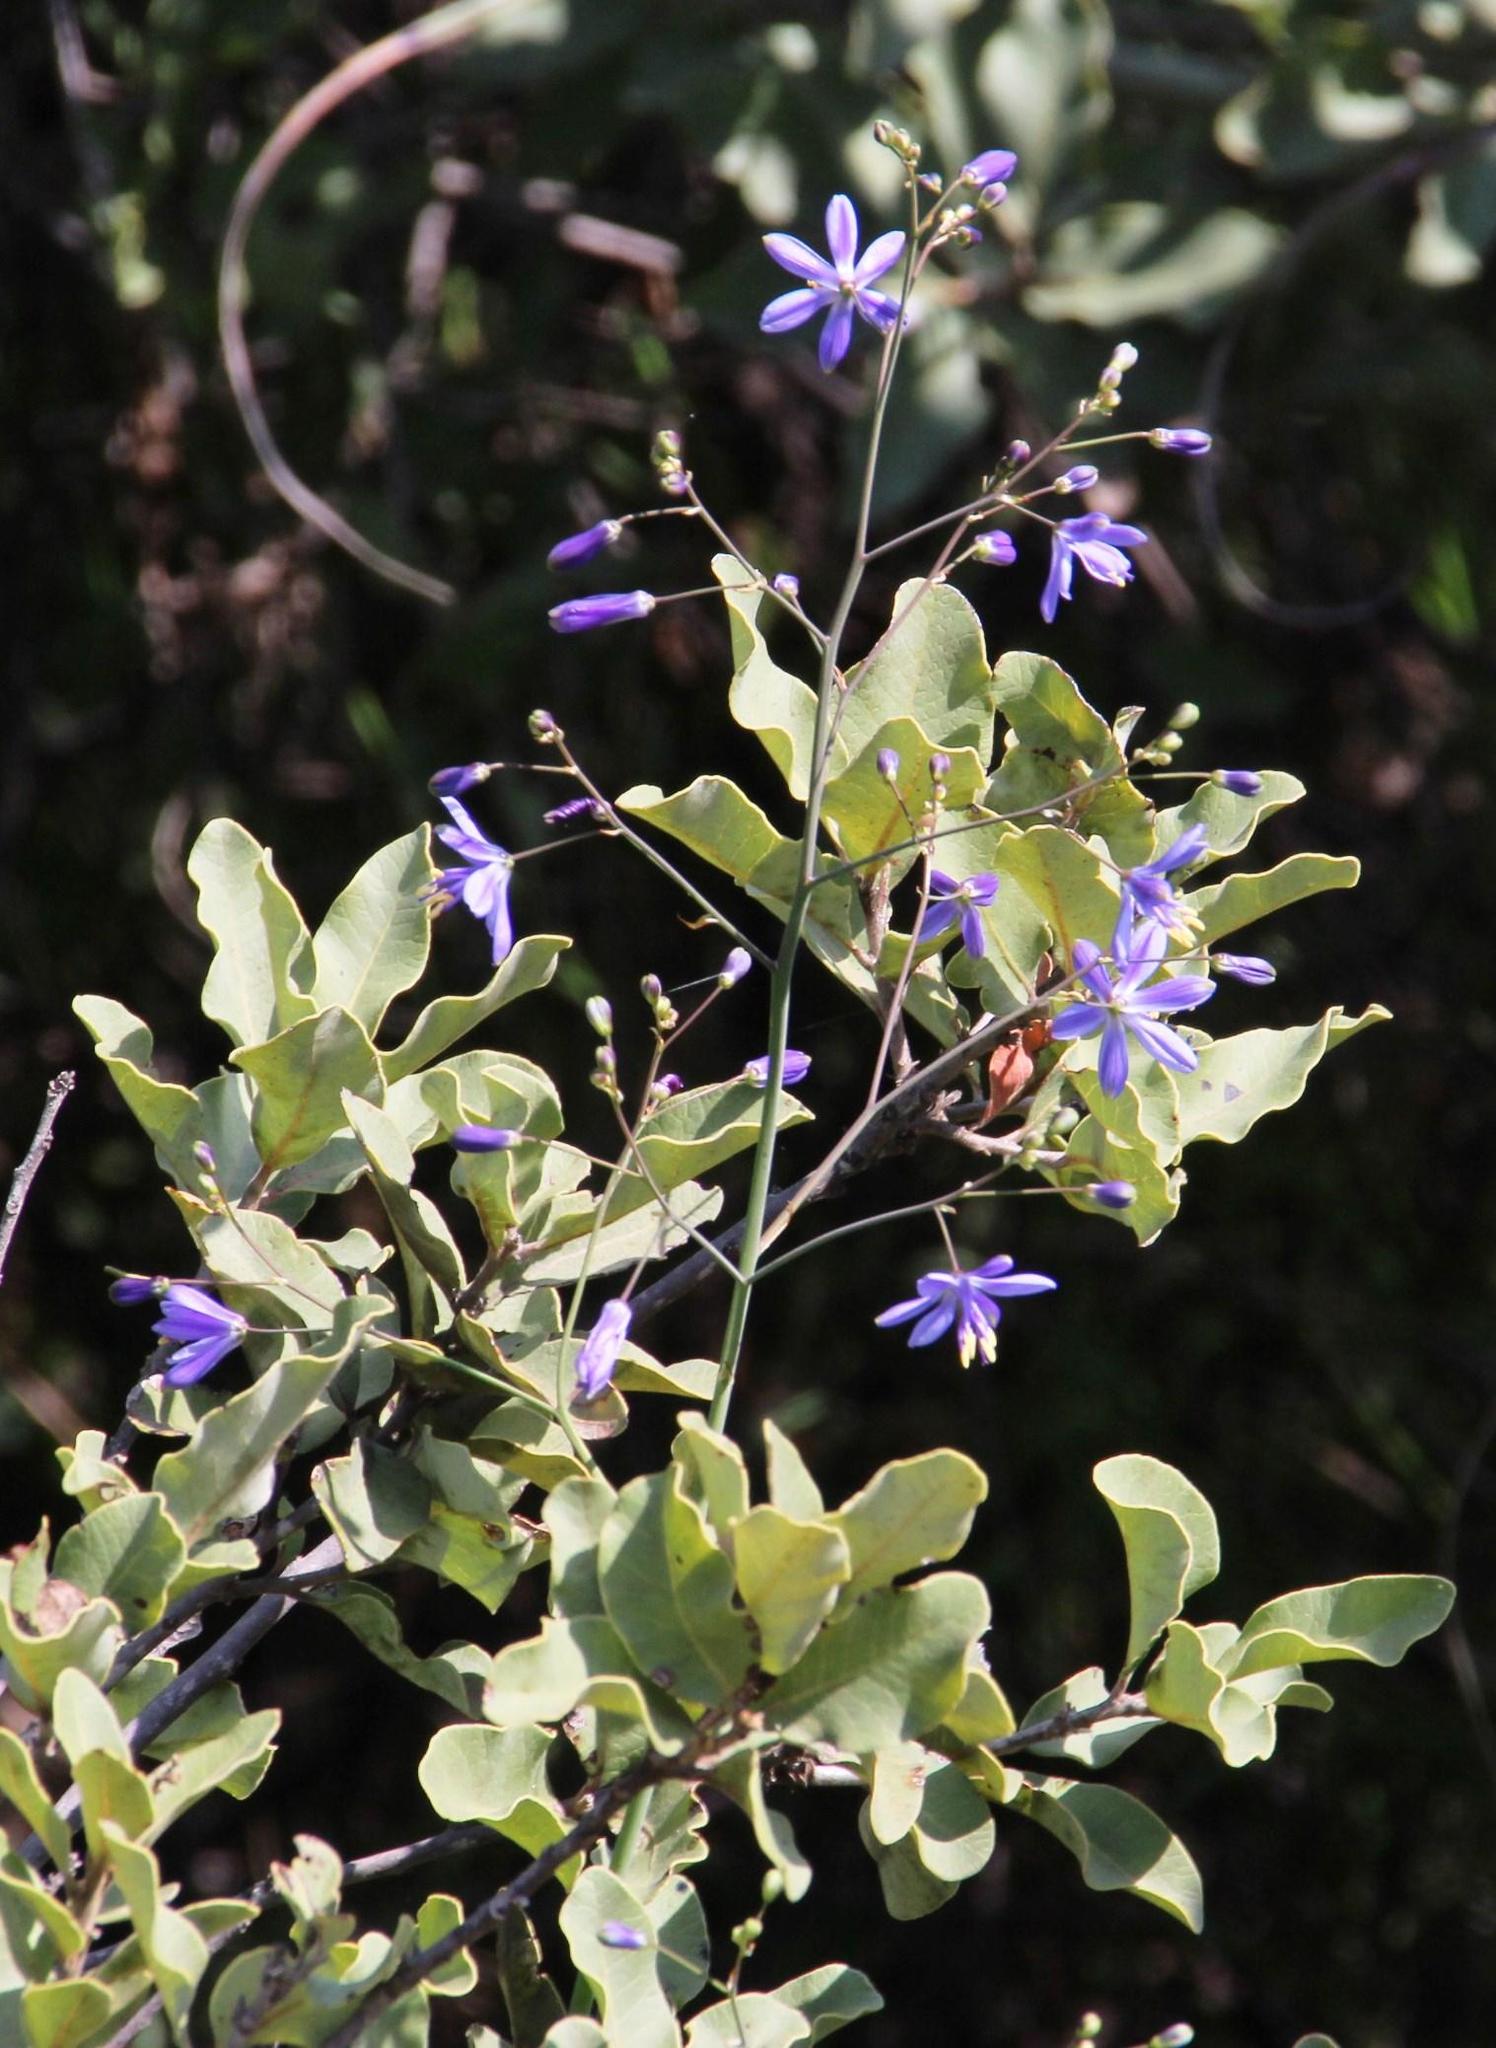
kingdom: Plantae
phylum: Tracheophyta
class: Liliopsida
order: Asparagales
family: Asphodelaceae
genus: Pasithea
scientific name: Pasithea caerulea
